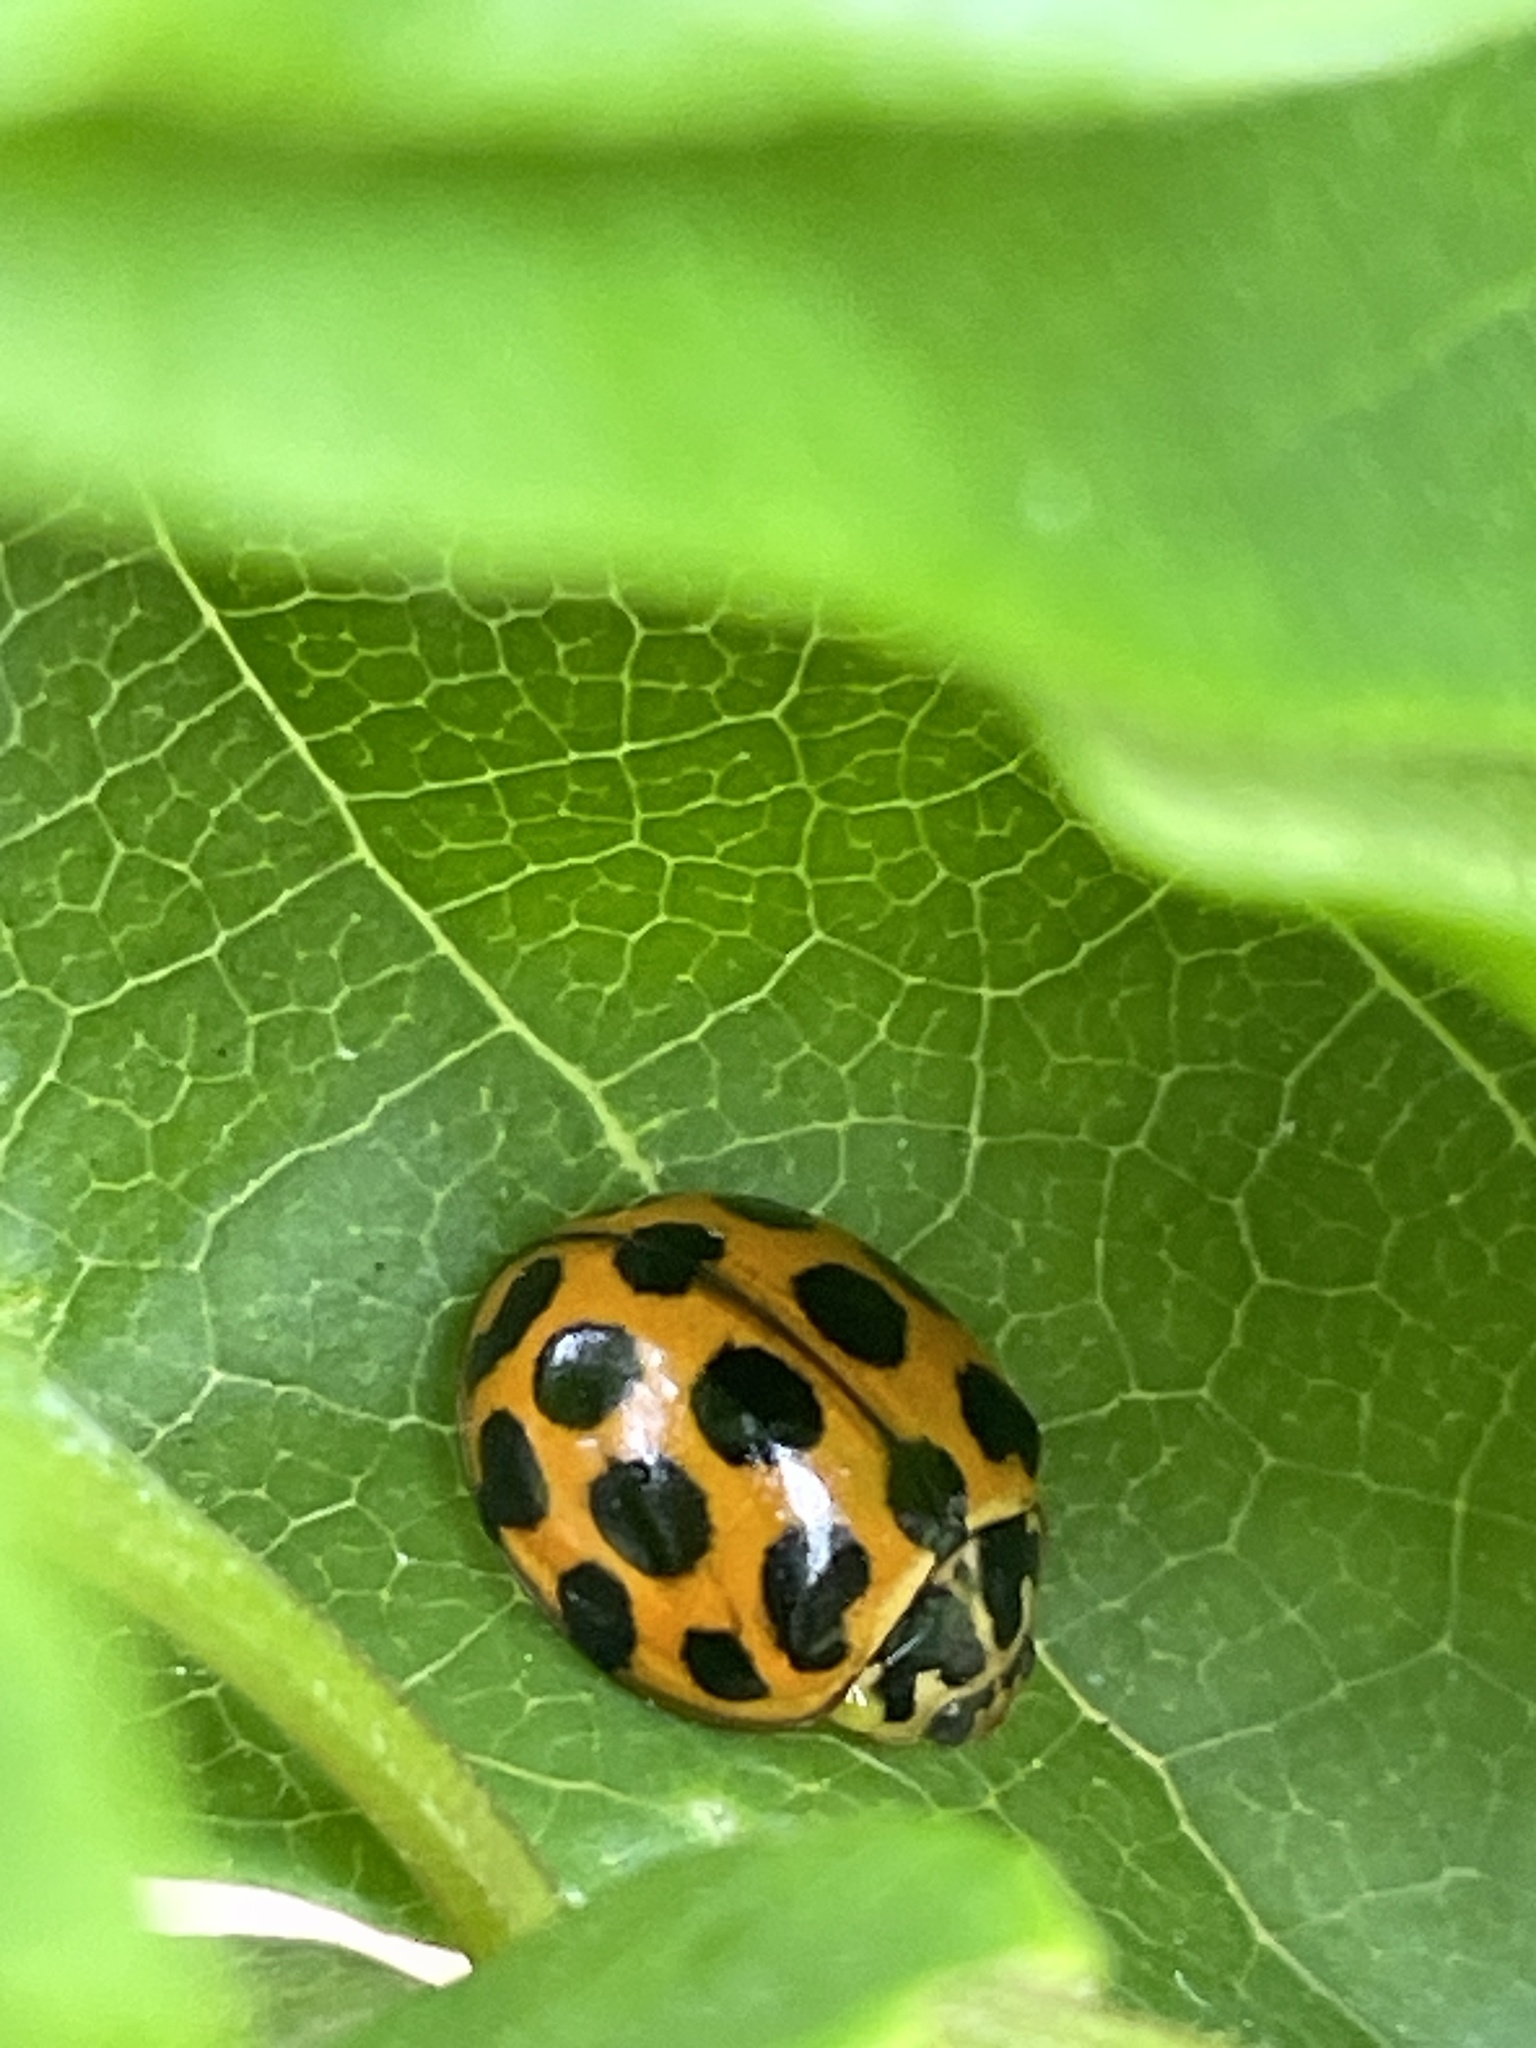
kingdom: Animalia
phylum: Arthropoda
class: Insecta
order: Coleoptera
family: Coccinellidae
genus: Harmonia
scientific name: Harmonia conformis
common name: Common spotted ladybird beetle
